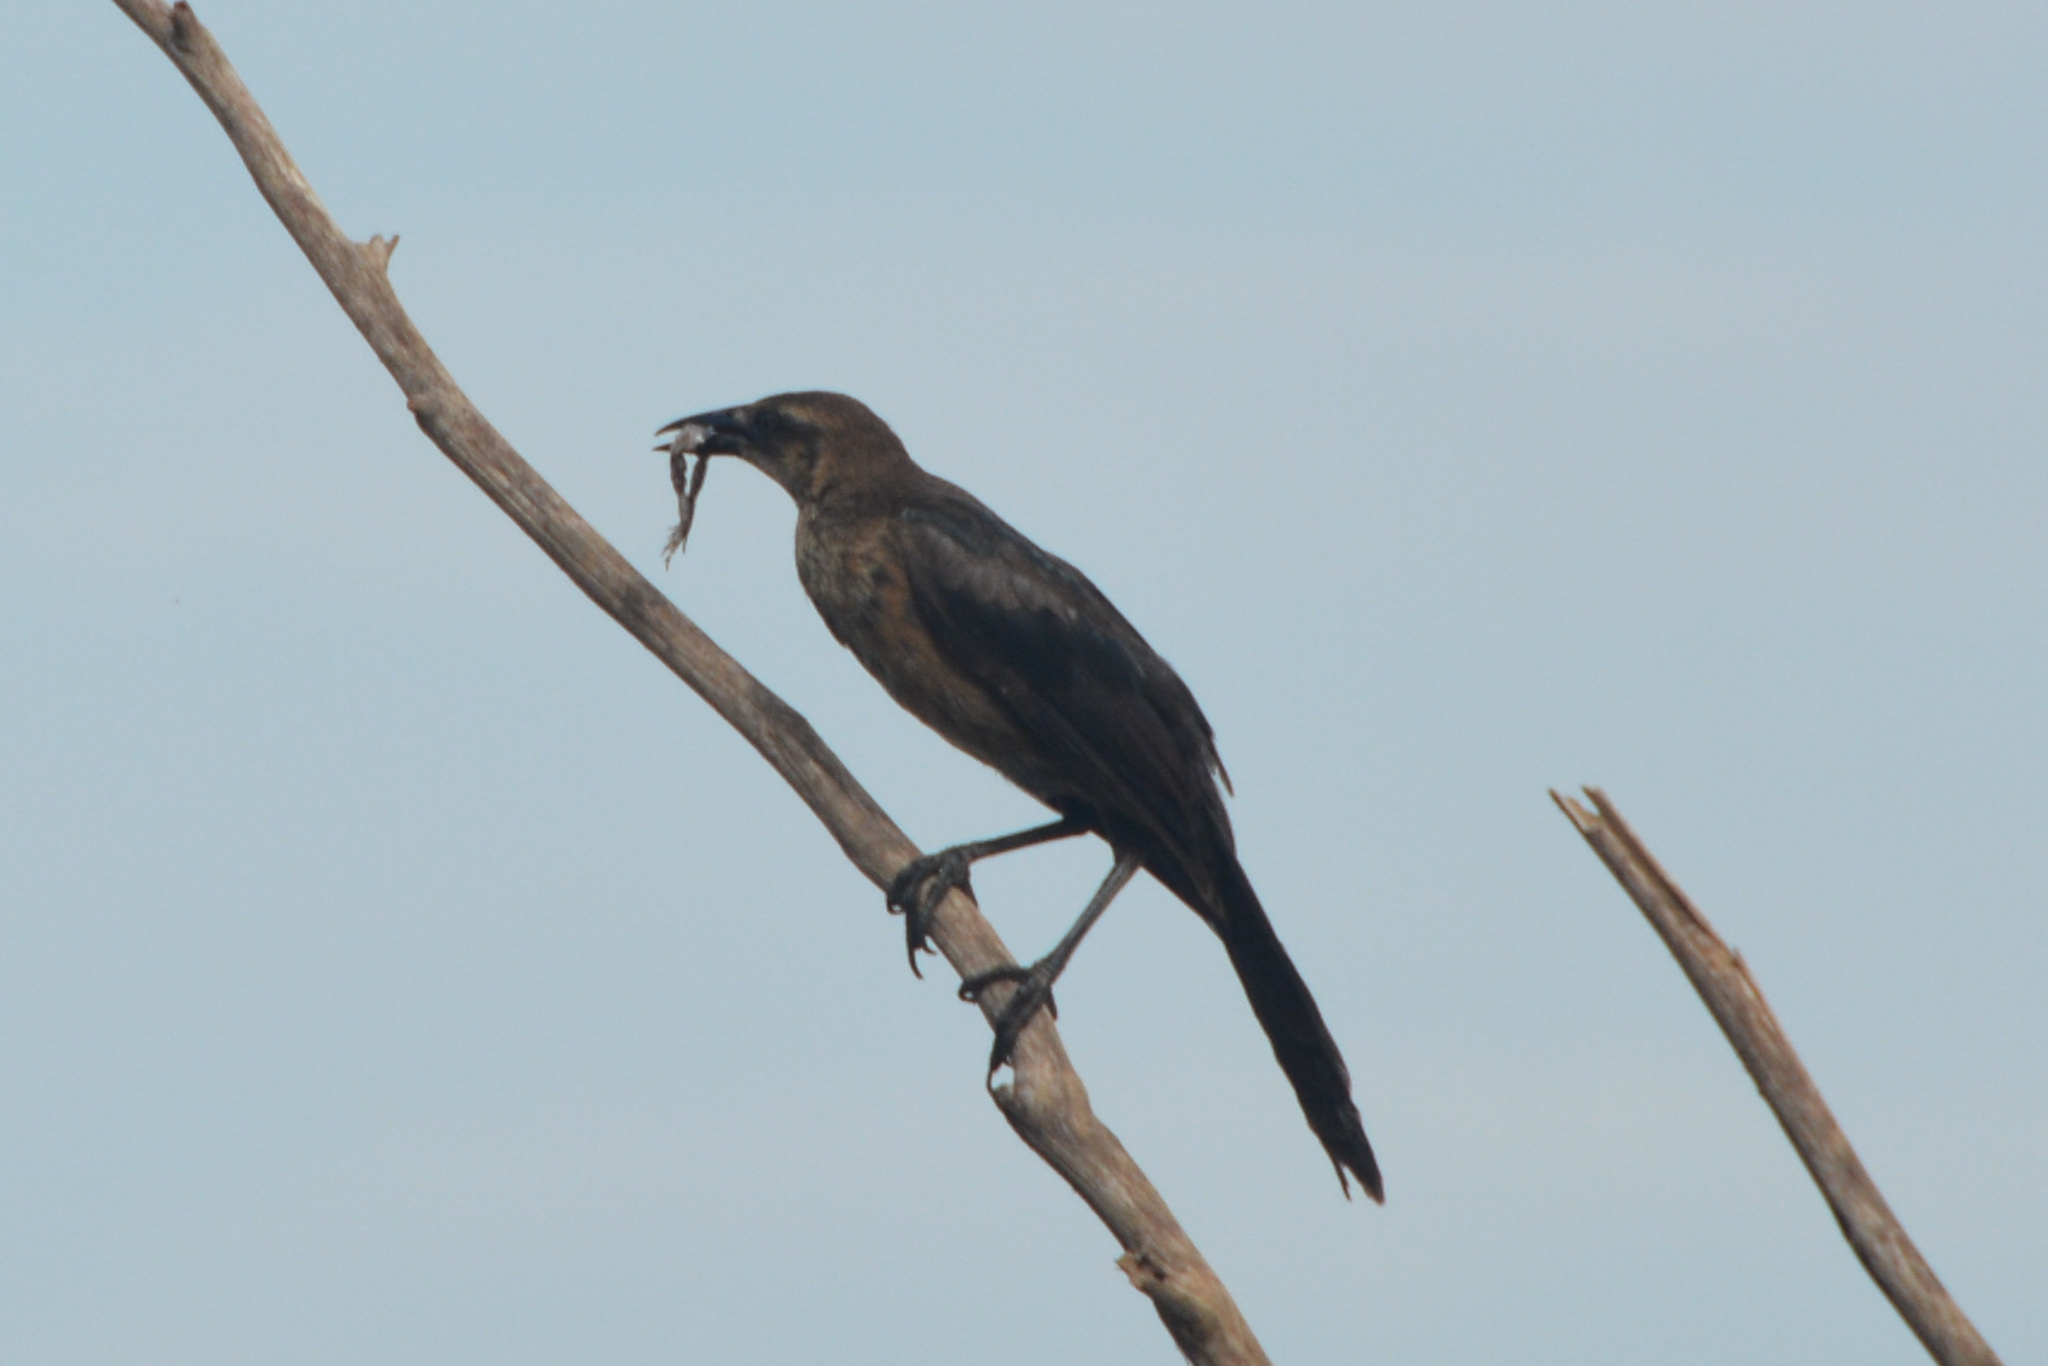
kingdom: Animalia
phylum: Chordata
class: Aves
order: Passeriformes
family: Icteridae
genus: Quiscalus
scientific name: Quiscalus mexicanus
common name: Great-tailed grackle
